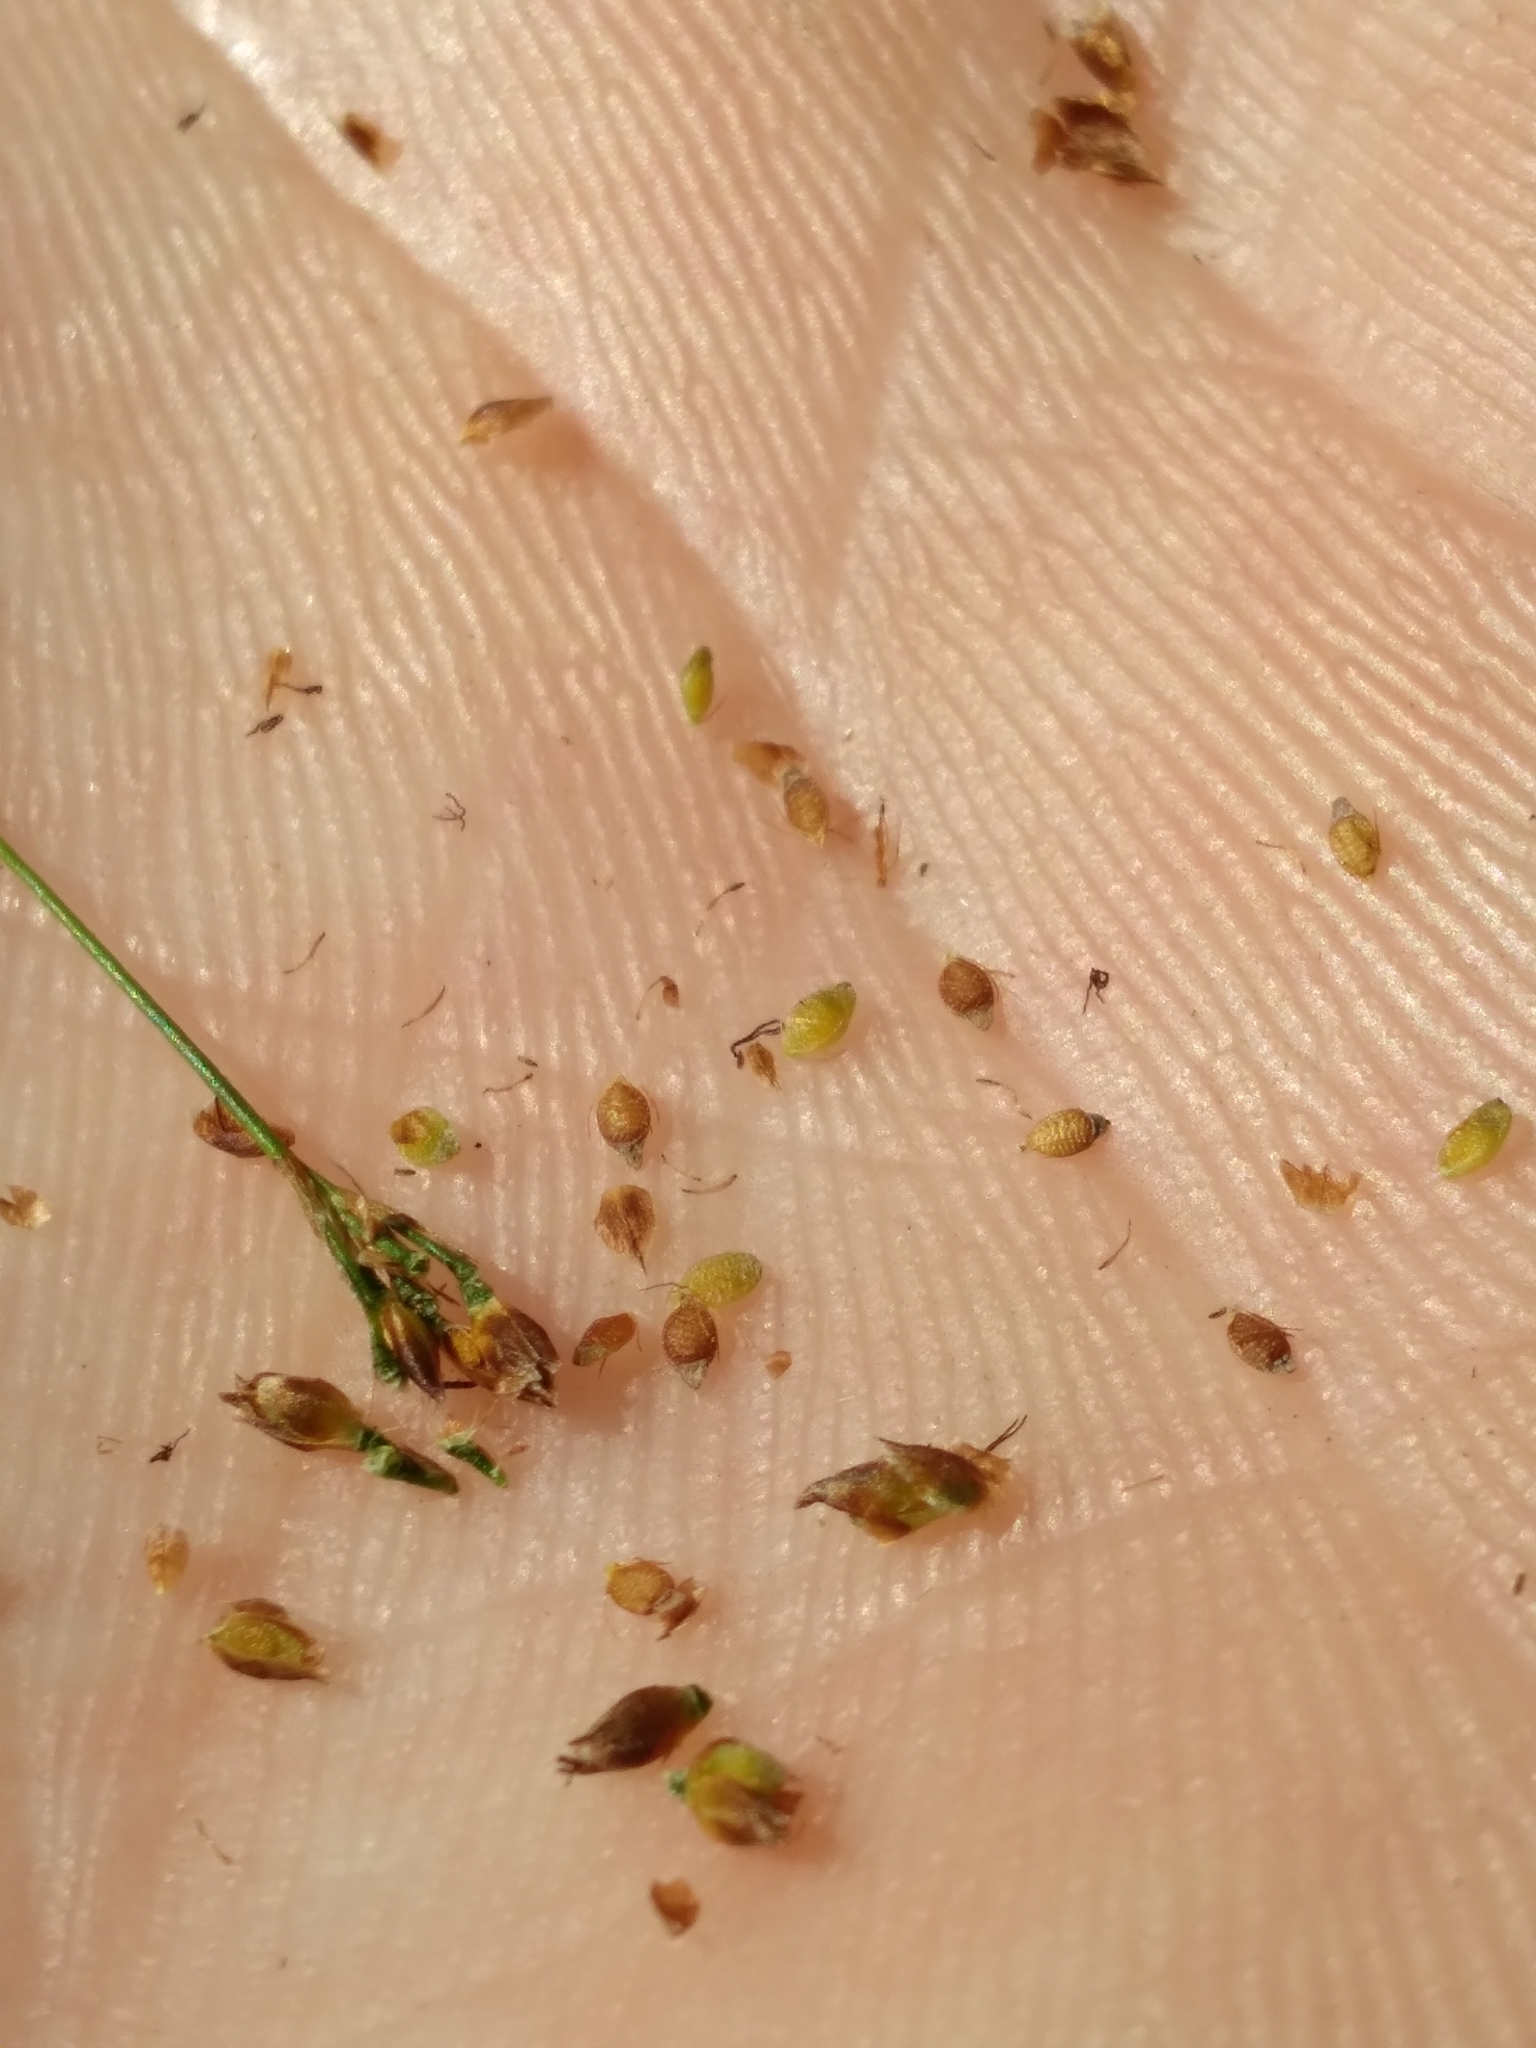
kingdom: Plantae
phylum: Tracheophyta
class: Liliopsida
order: Poales
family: Cyperaceae
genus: Rhynchospora
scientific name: Rhynchospora microcarpa
